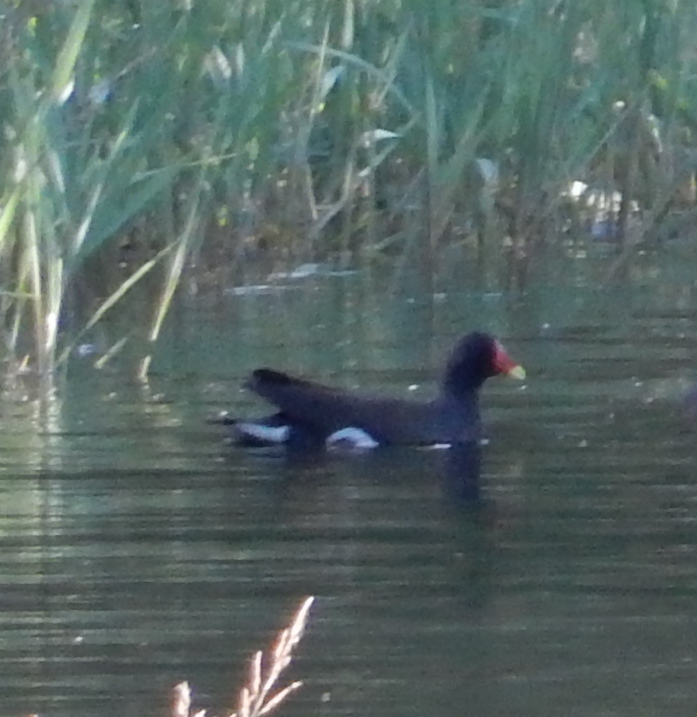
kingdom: Animalia
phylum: Chordata
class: Aves
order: Gruiformes
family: Rallidae
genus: Gallinula
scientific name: Gallinula chloropus
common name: Common moorhen
